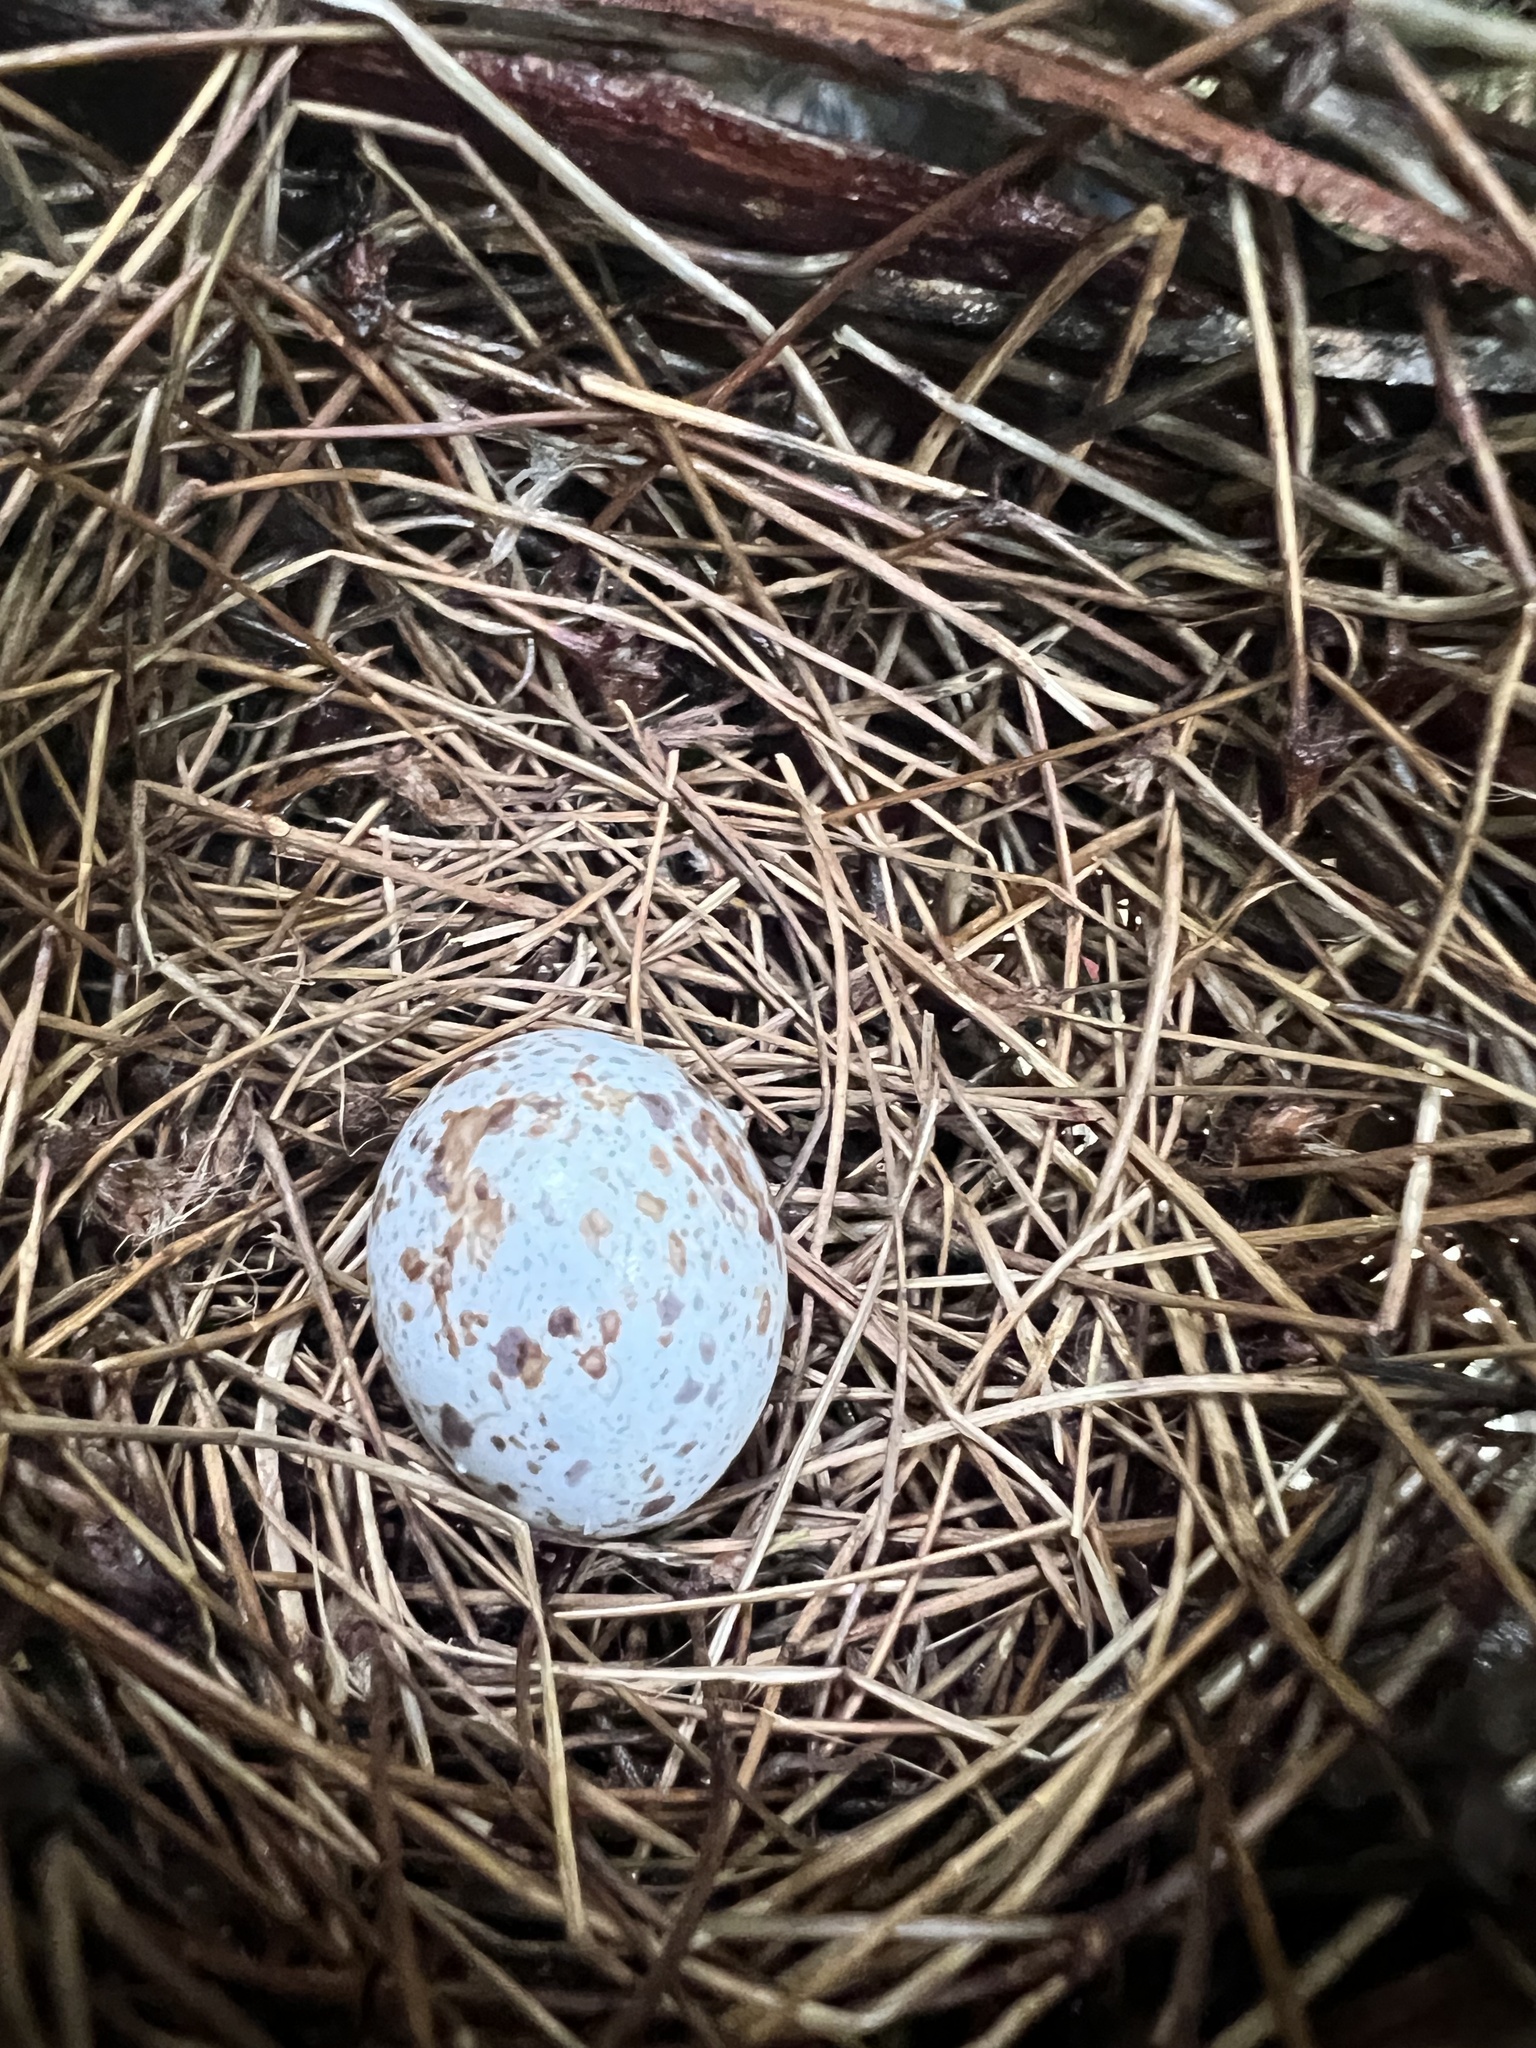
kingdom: Animalia
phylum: Chordata
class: Aves
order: Passeriformes
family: Cardinalidae
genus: Cardinalis
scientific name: Cardinalis cardinalis
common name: Northern cardinal
